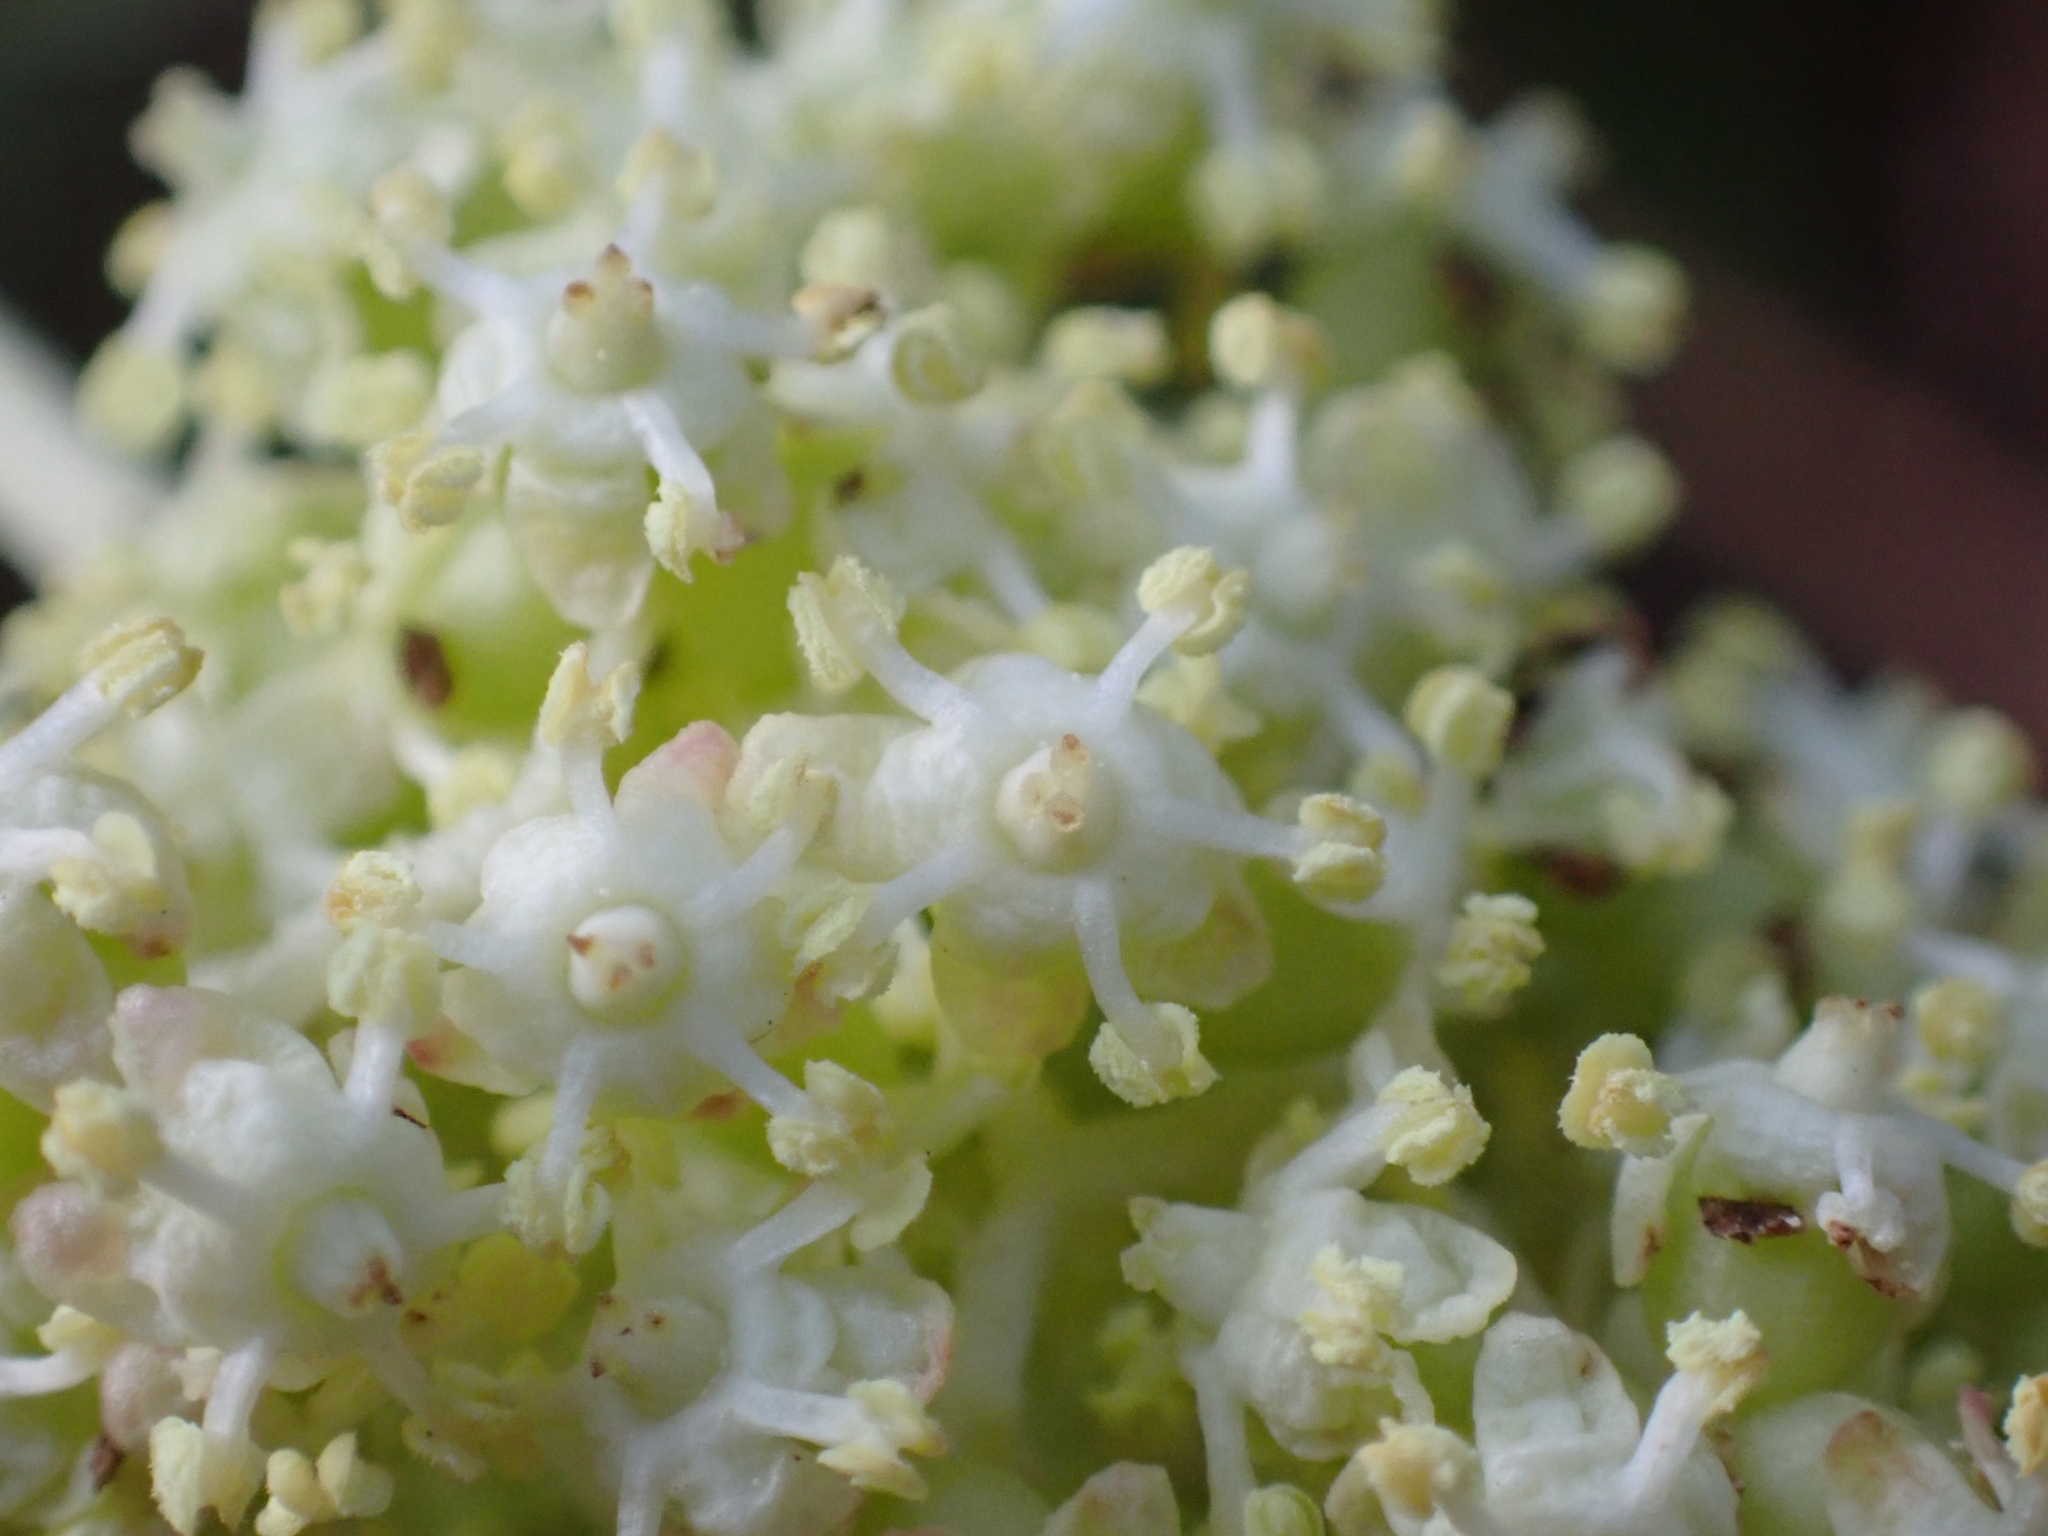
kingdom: Plantae
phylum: Tracheophyta
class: Magnoliopsida
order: Dipsacales
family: Viburnaceae
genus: Sambucus
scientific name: Sambucus racemosa
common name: Red-berried elder
